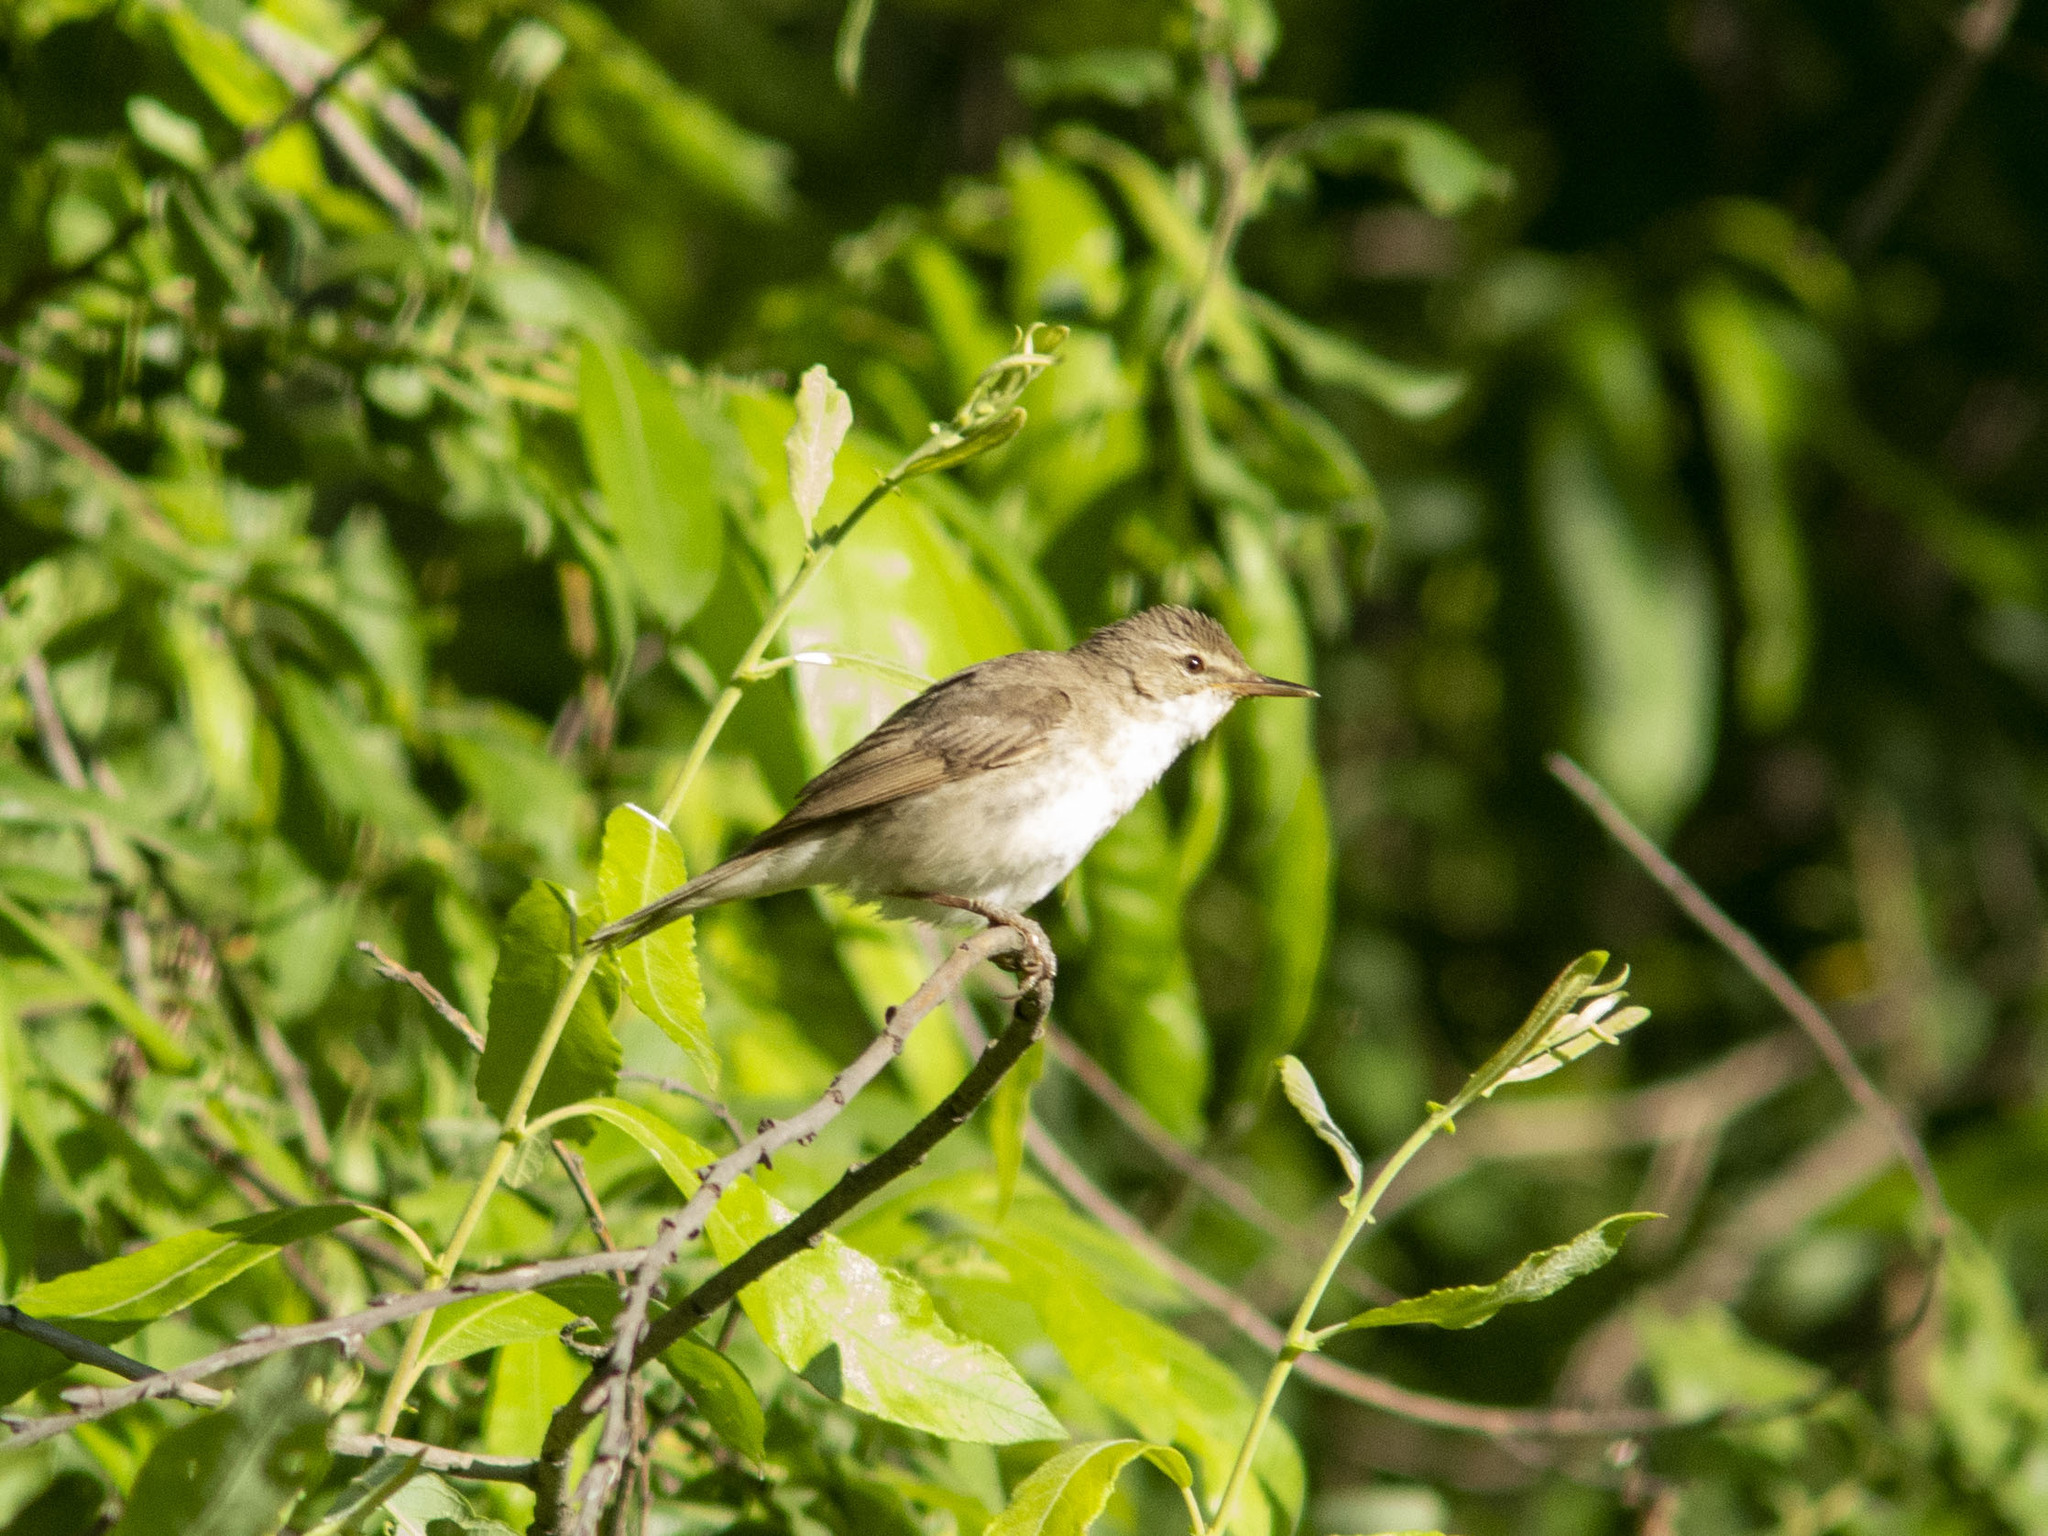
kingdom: Animalia
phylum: Chordata
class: Aves
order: Passeriformes
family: Acrocephalidae
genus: Acrocephalus
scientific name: Acrocephalus dumetorum
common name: Blyth's reed warbler
